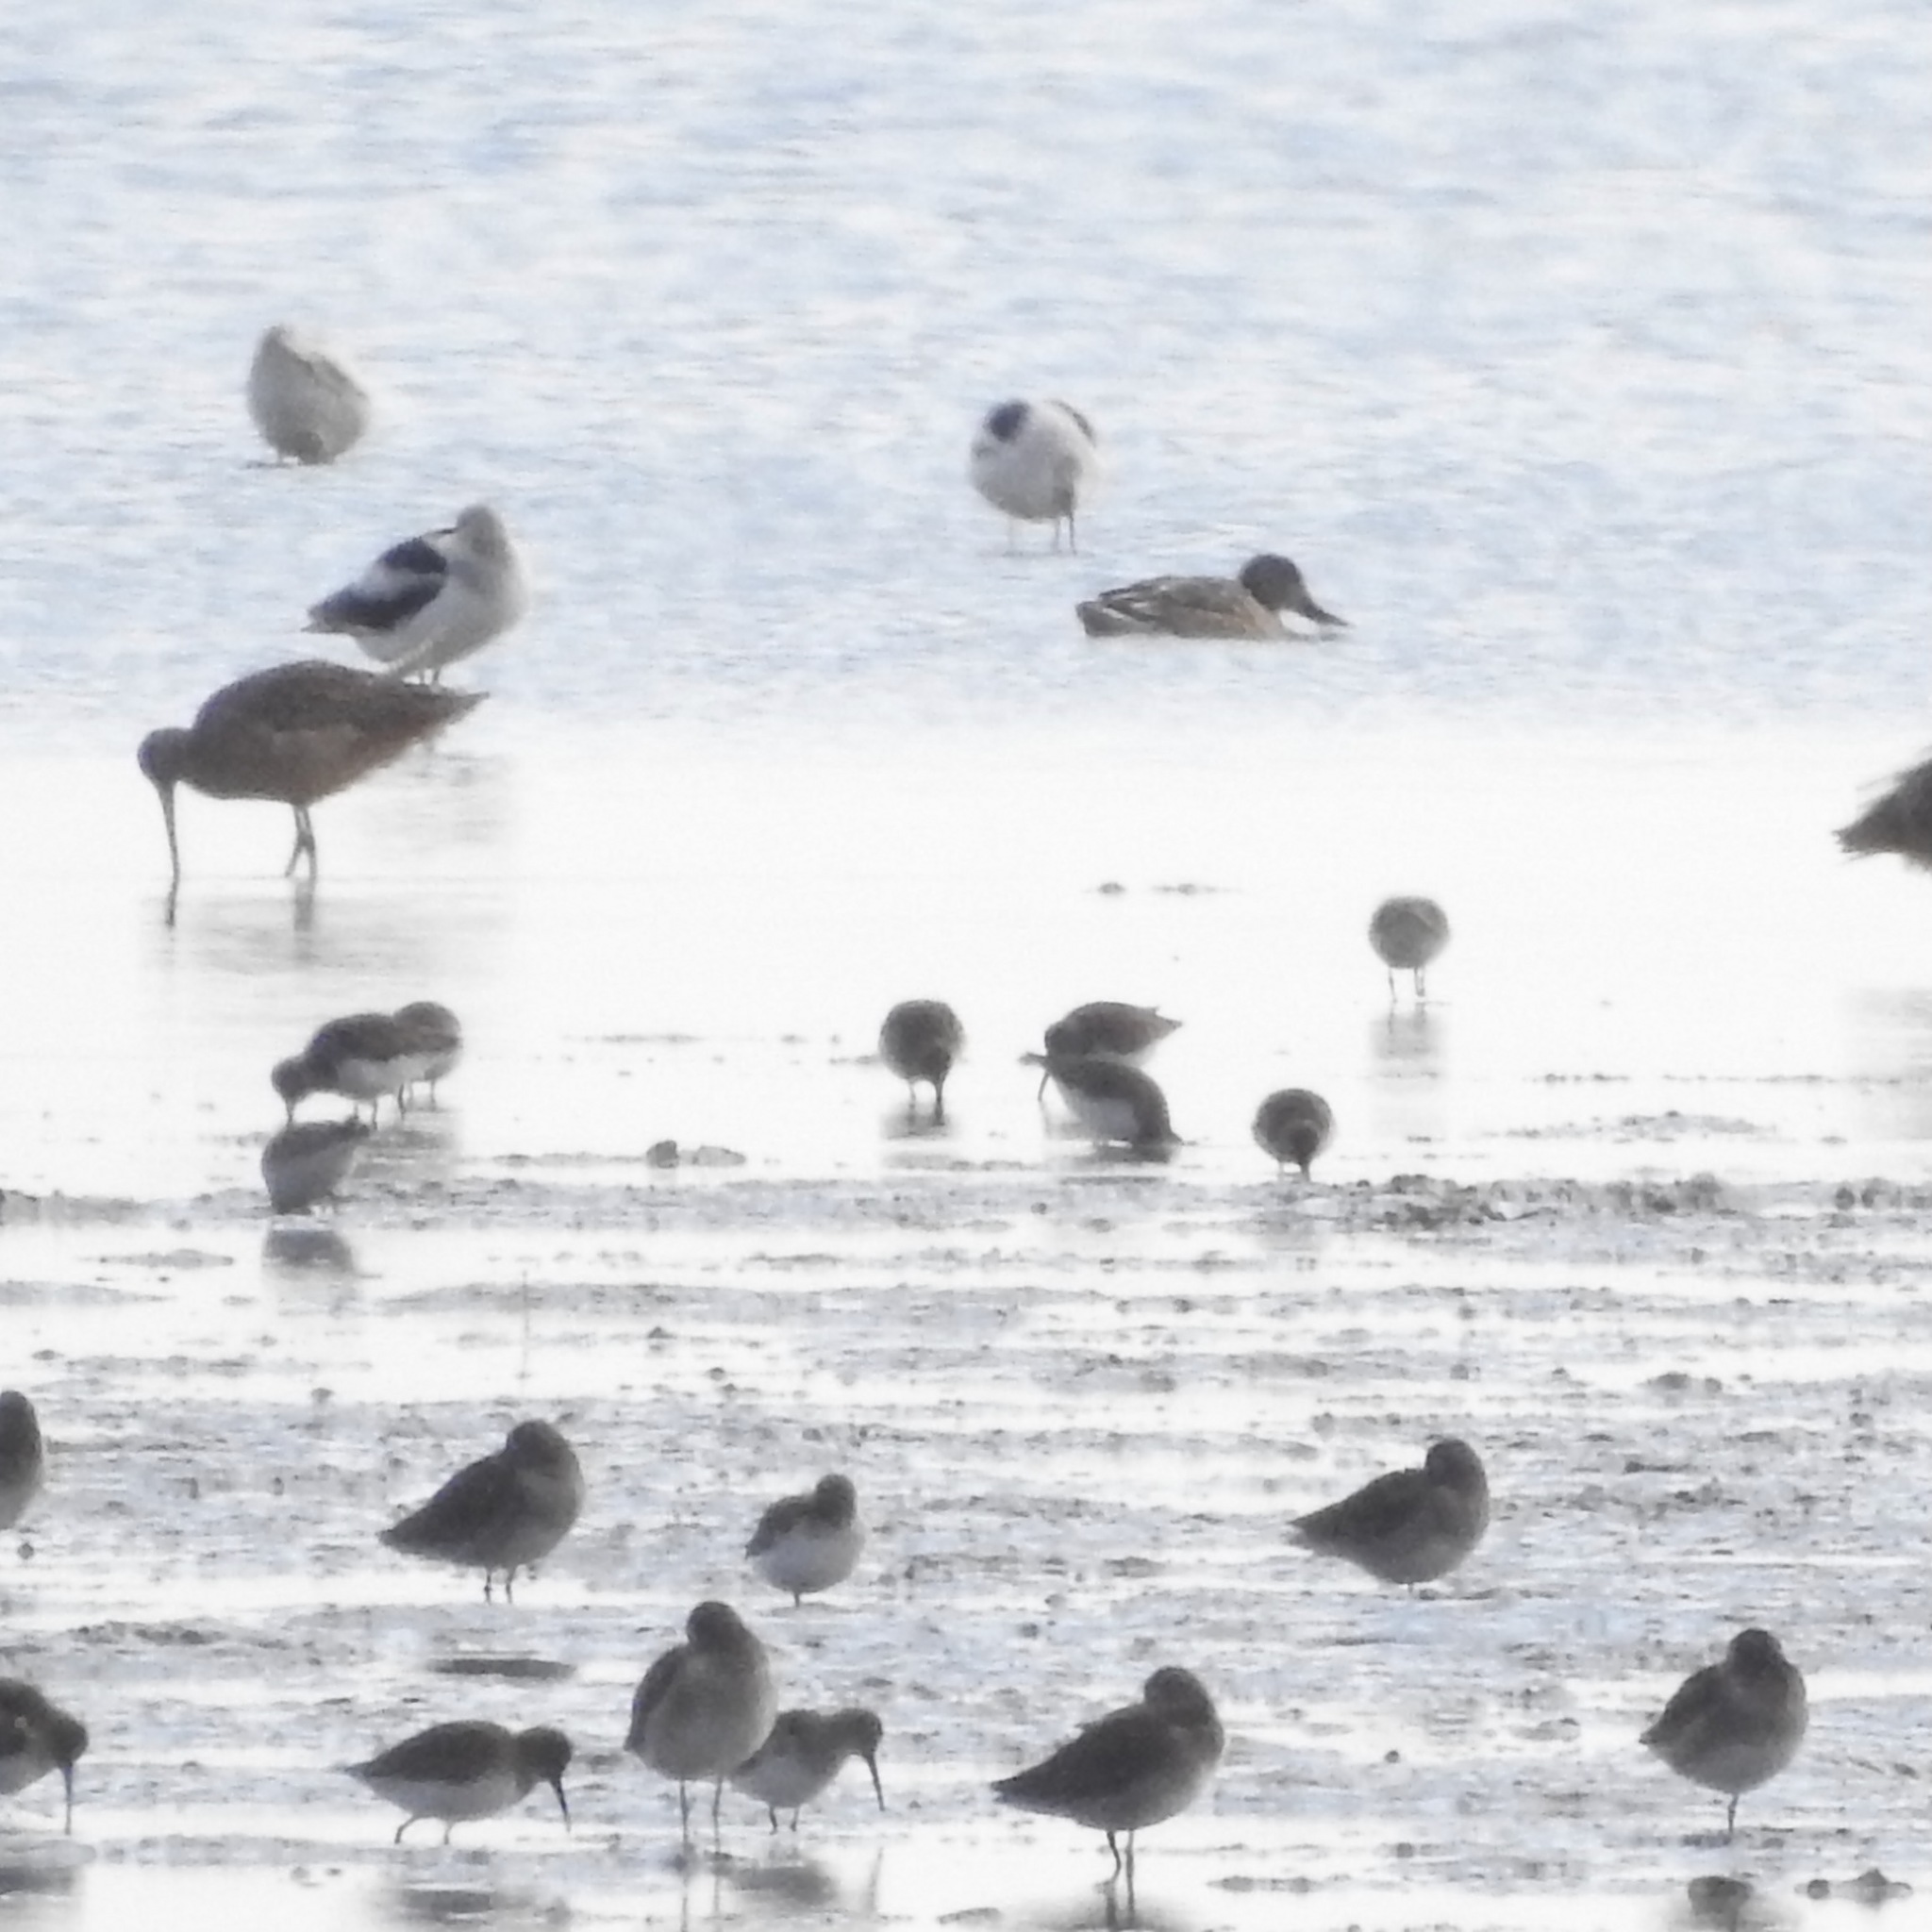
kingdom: Animalia
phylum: Chordata
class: Aves
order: Charadriiformes
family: Scolopacidae
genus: Calidris
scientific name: Calidris alpina
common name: Dunlin
